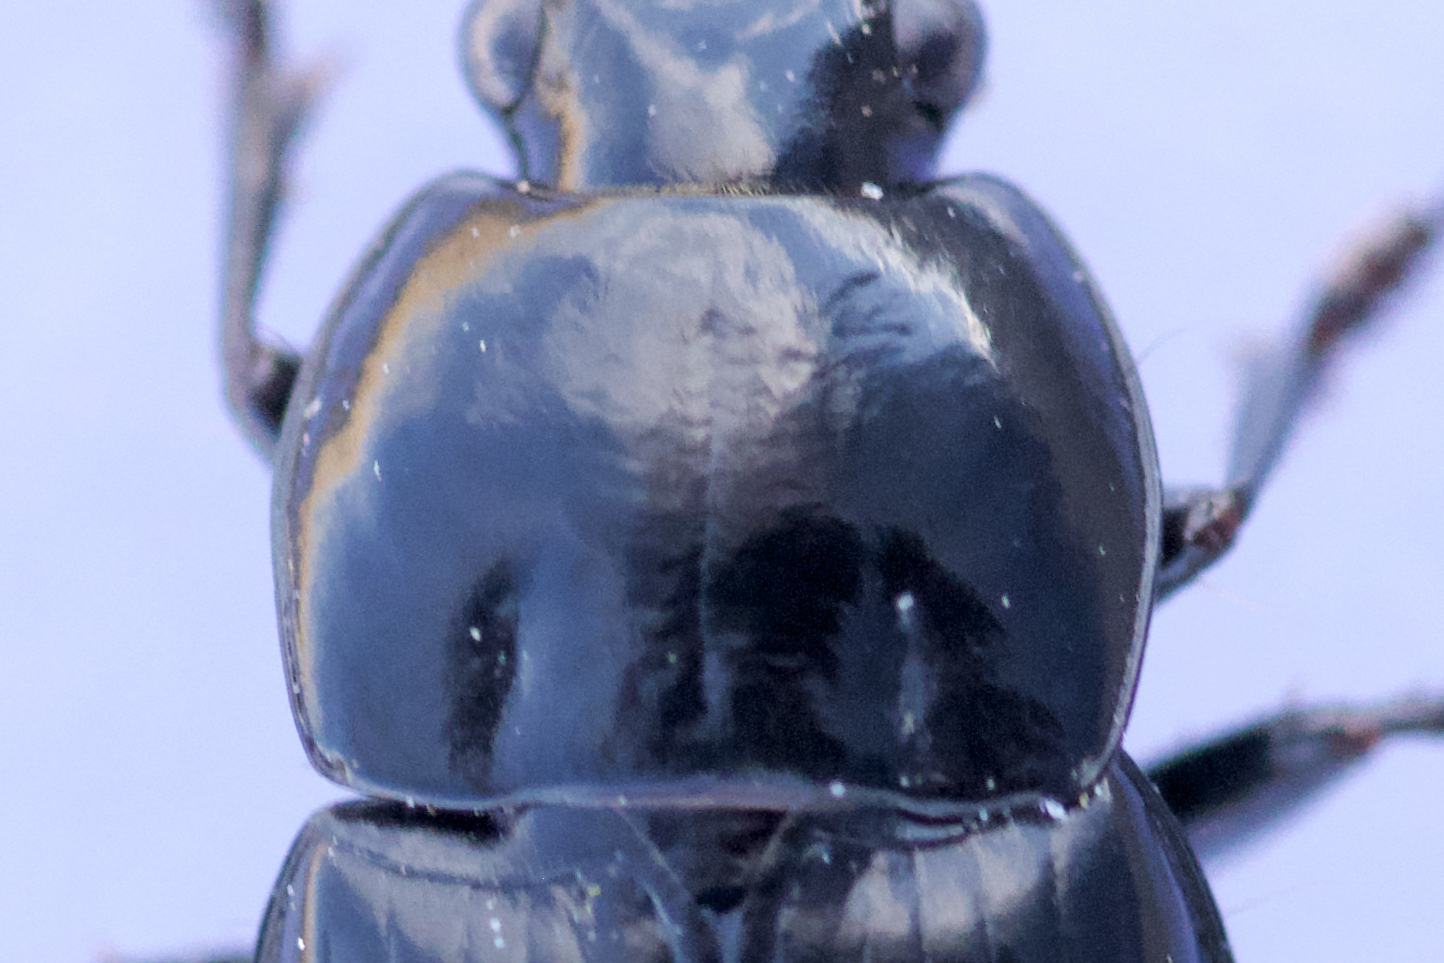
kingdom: Animalia
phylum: Arthropoda
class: Insecta
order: Coleoptera
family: Carabidae
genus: Diplocheila
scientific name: Diplocheila obtusa
